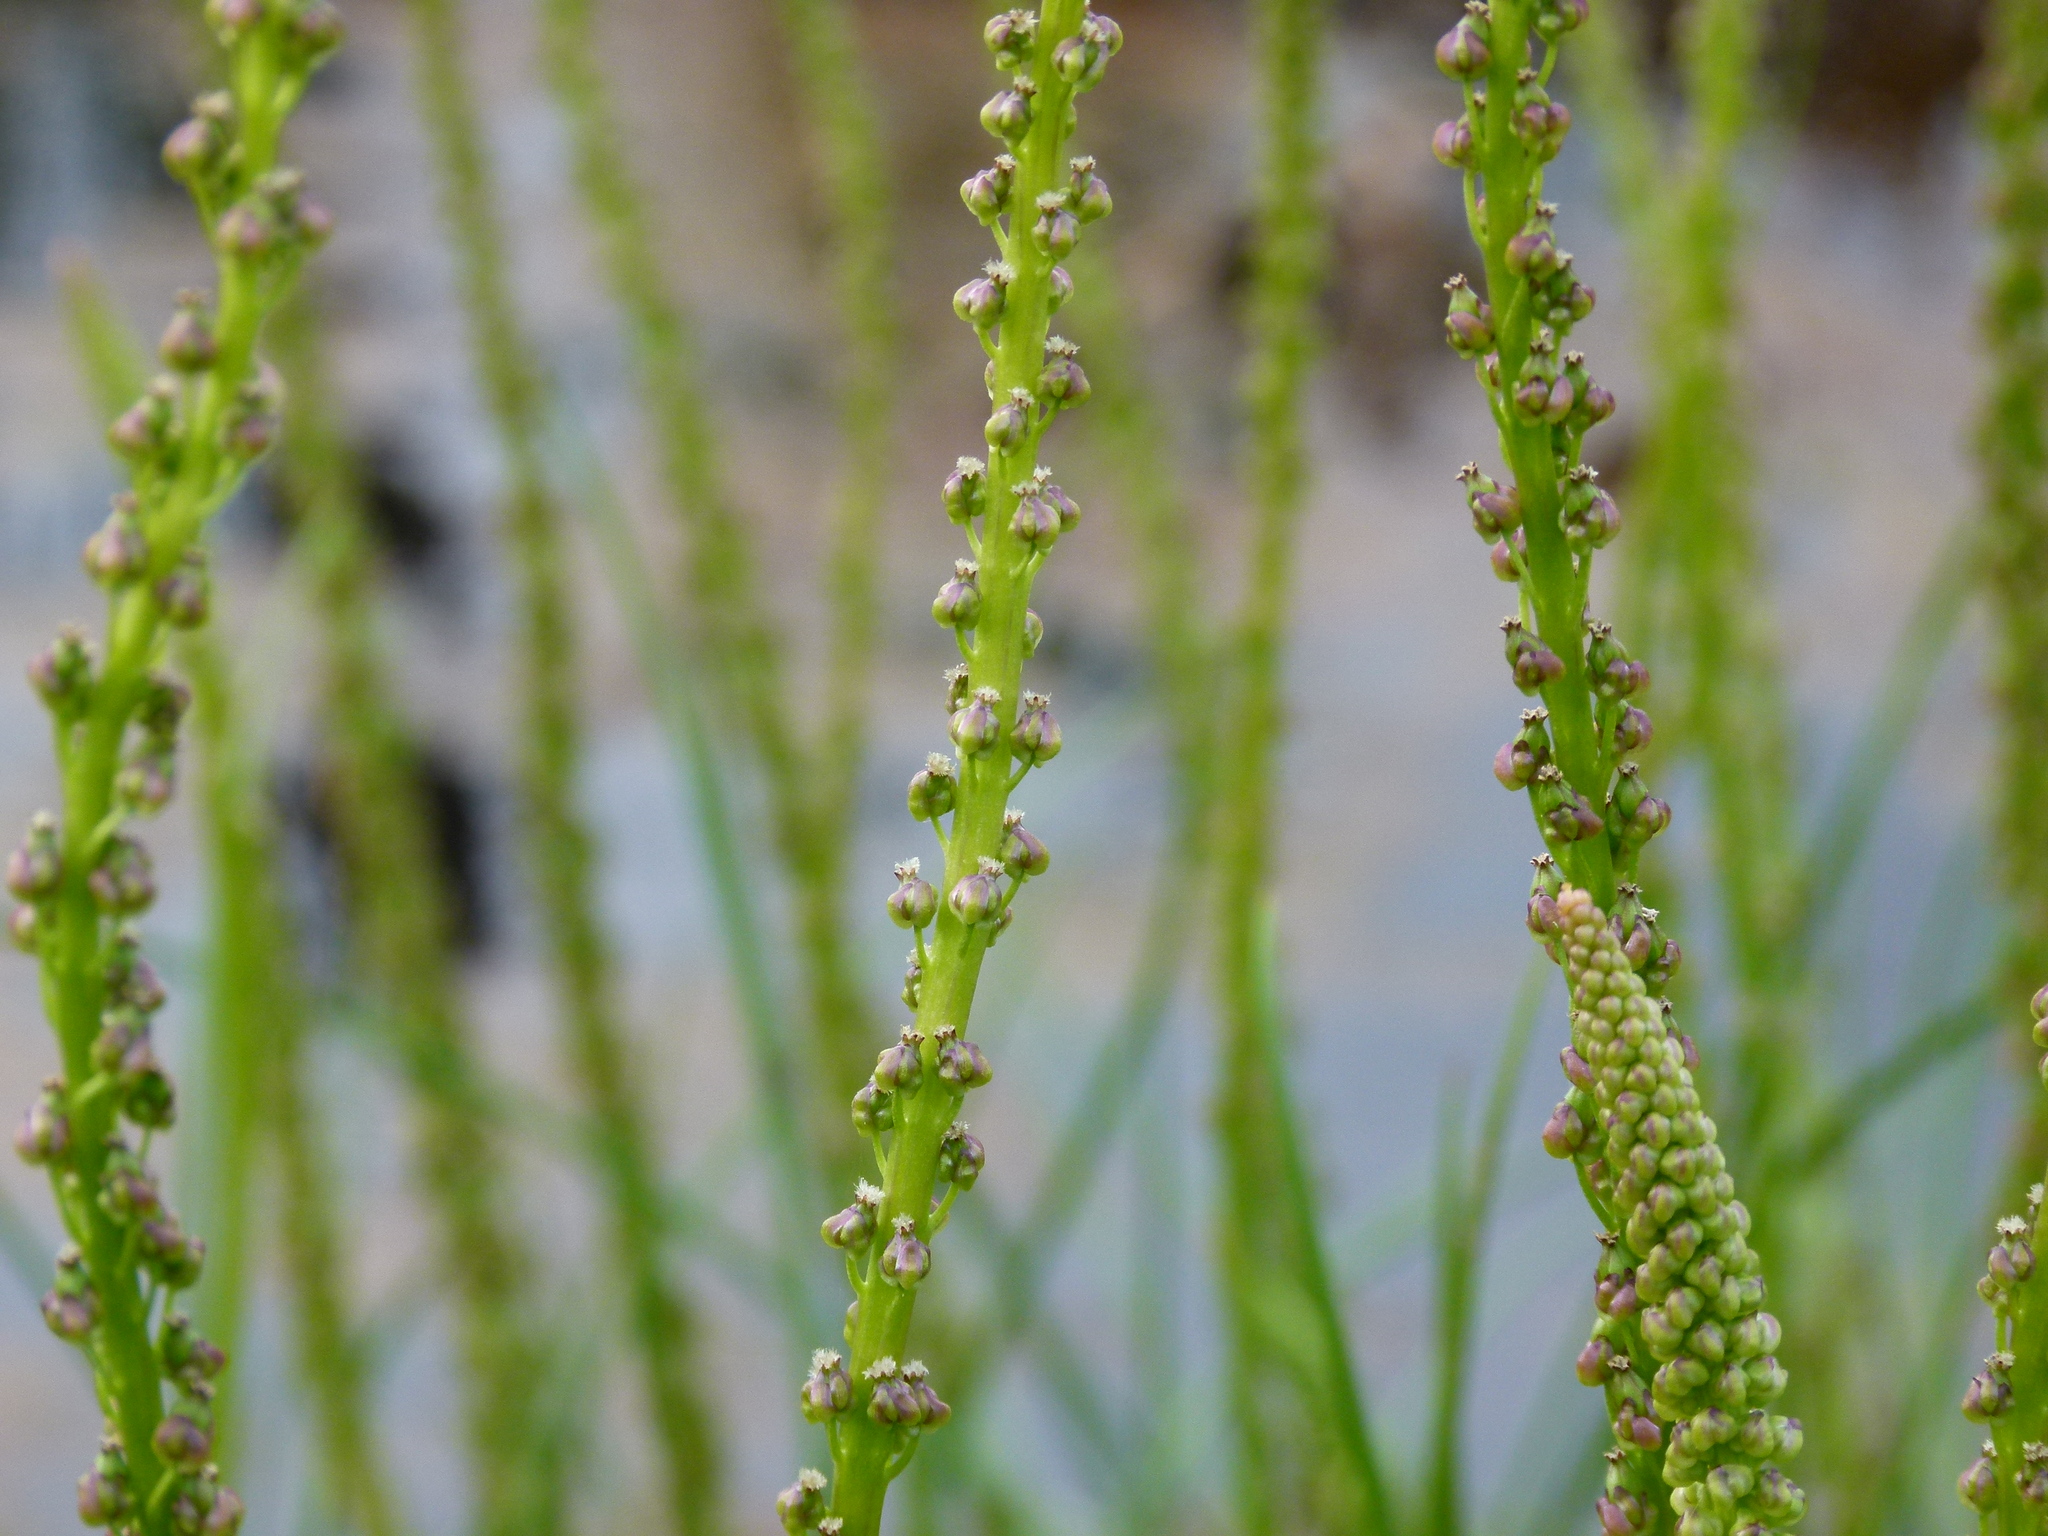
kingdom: Plantae
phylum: Tracheophyta
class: Liliopsida
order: Alismatales
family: Juncaginaceae
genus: Triglochin
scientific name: Triglochin maritima
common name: Sea arrowgrass
